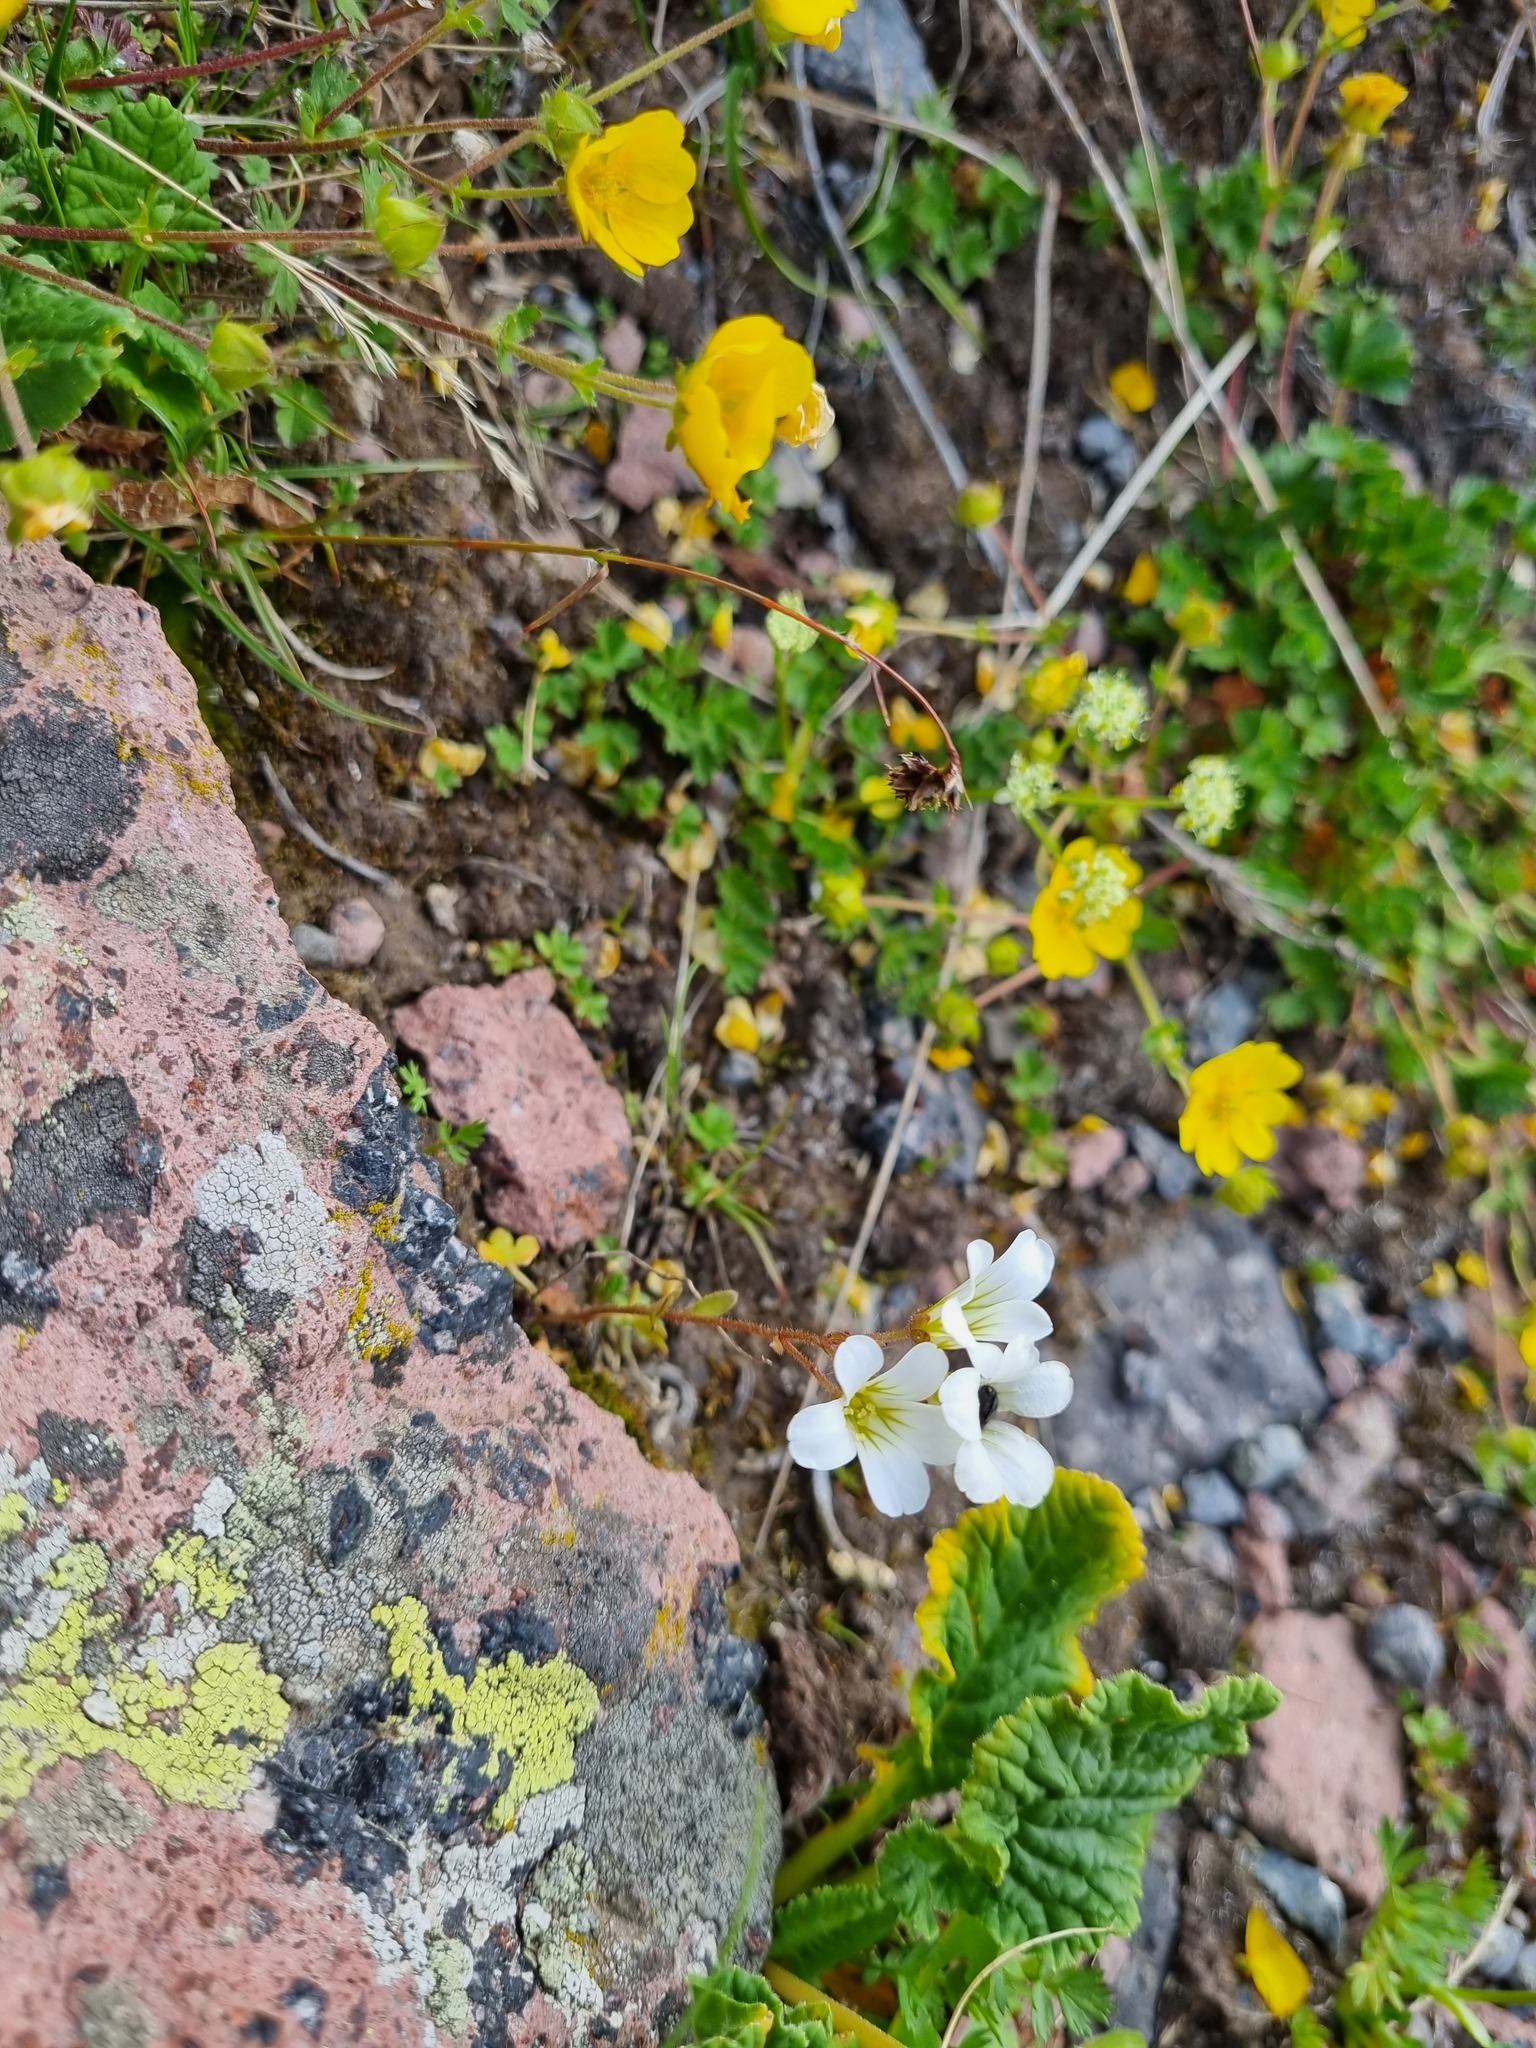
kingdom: Plantae
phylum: Tracheophyta
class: Magnoliopsida
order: Saxifragales
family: Saxifragaceae
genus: Saxifraga
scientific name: Saxifraga sibirica
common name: Siberian saxifrage
